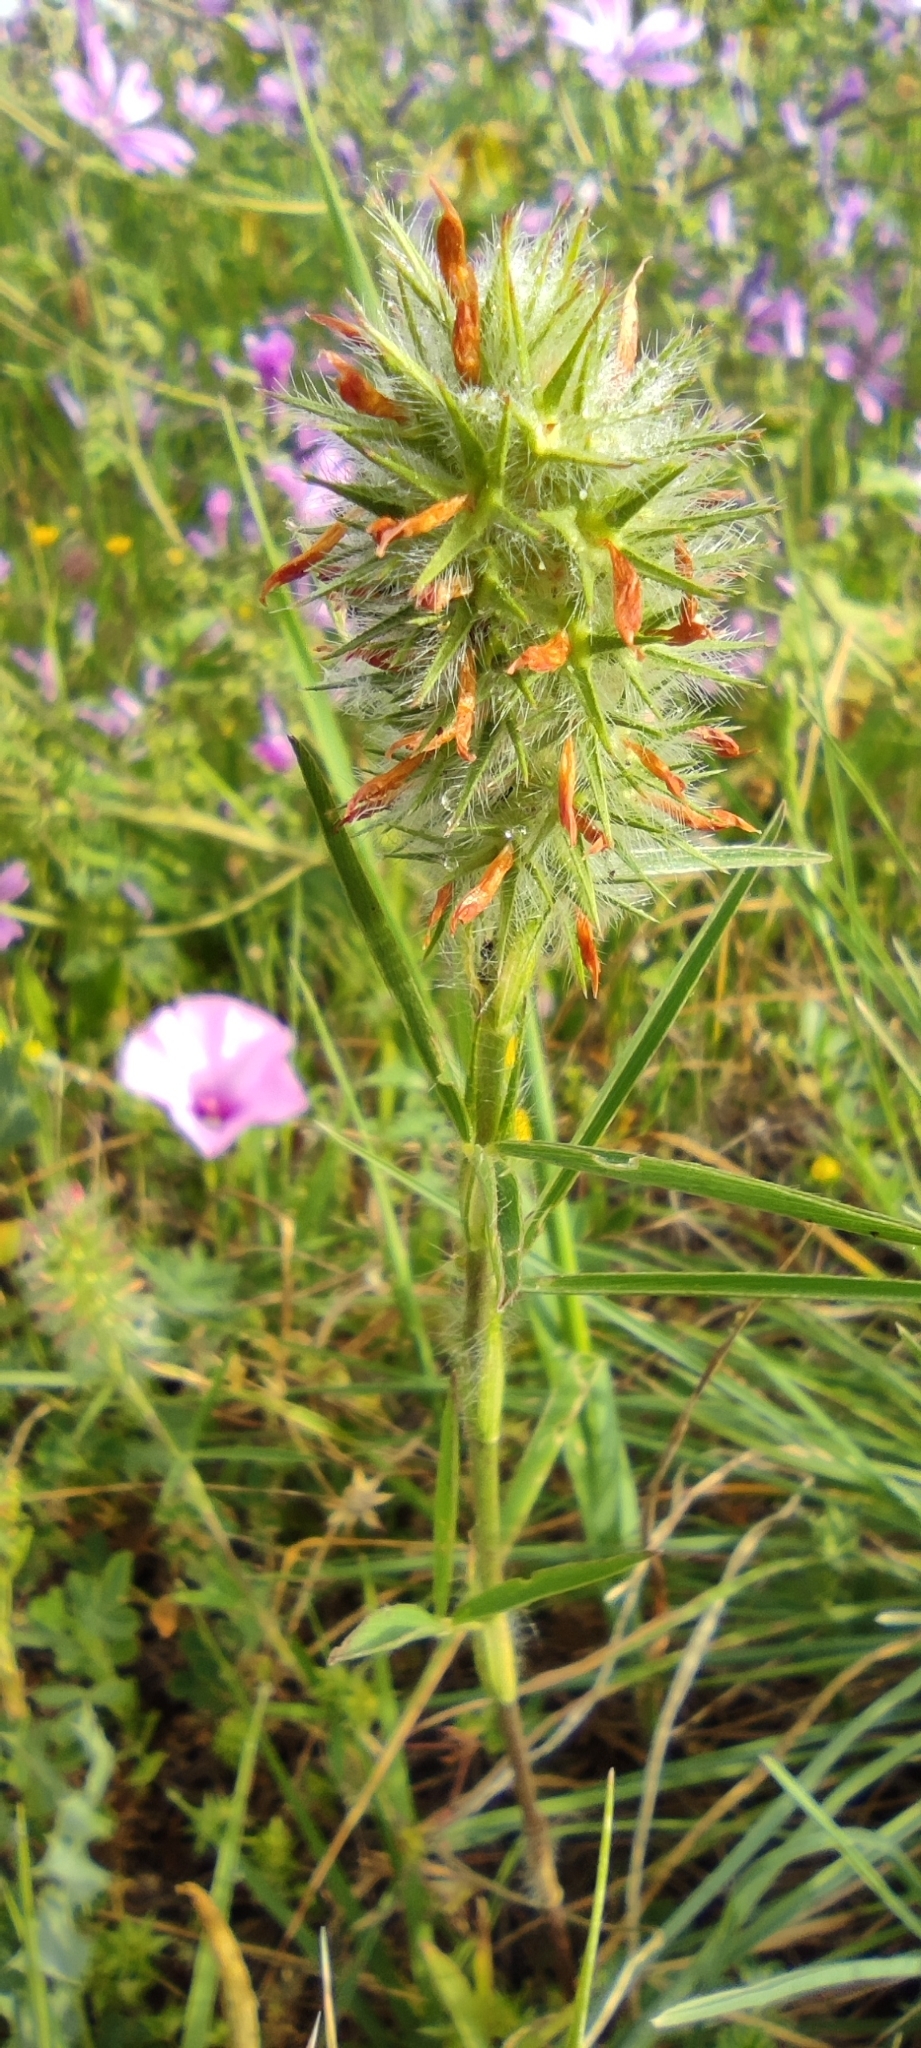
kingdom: Plantae
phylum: Tracheophyta
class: Magnoliopsida
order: Fabales
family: Fabaceae
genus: Trifolium
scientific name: Trifolium angustifolium
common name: Narrow clover
